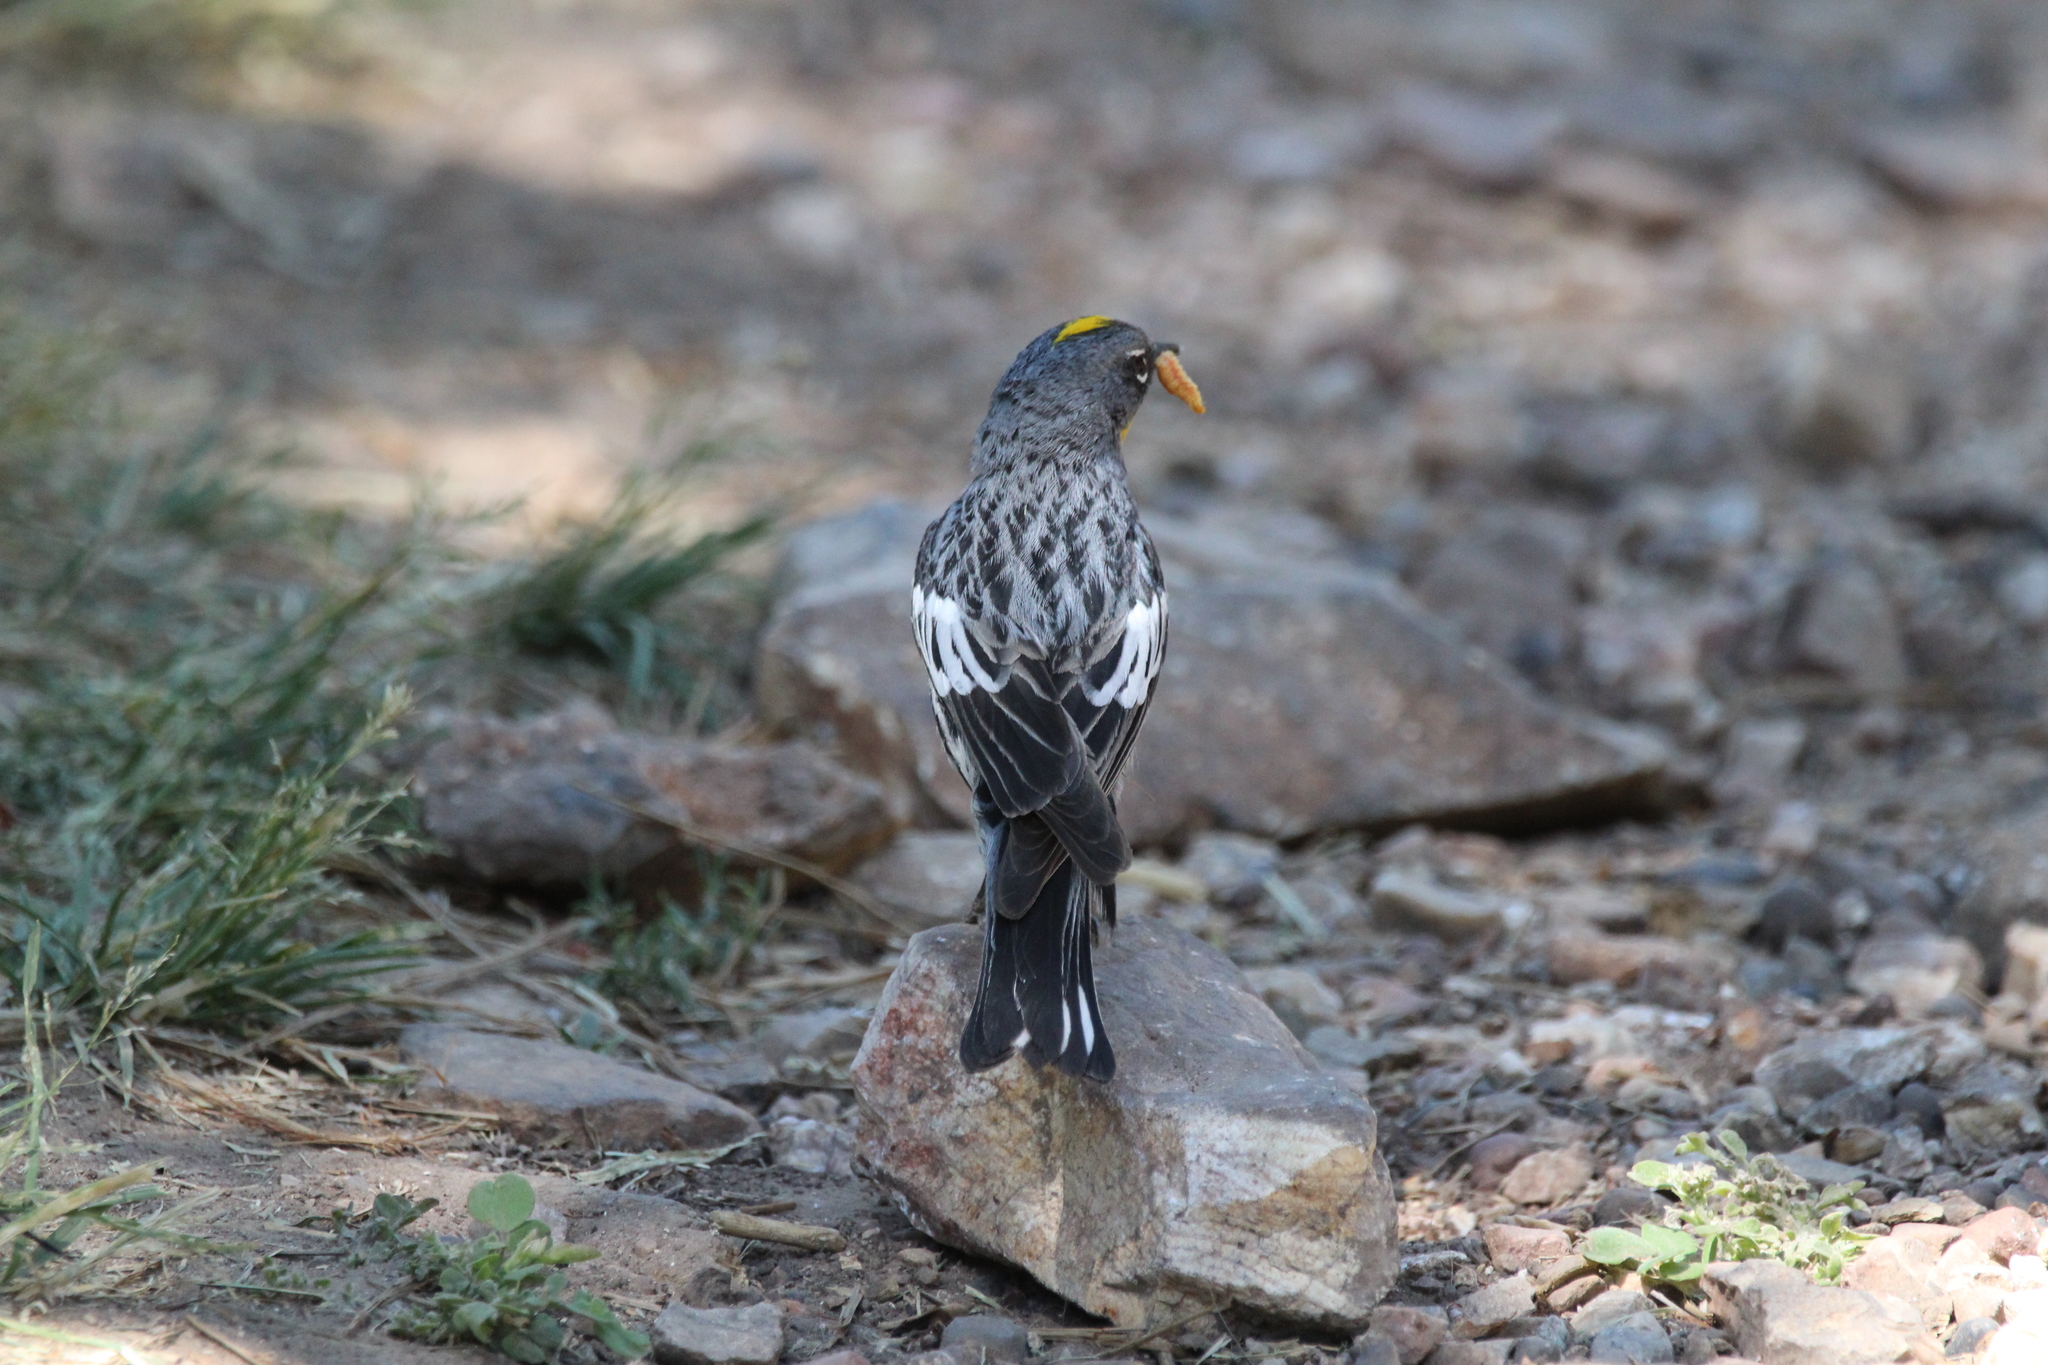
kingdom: Animalia
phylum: Chordata
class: Aves
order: Passeriformes
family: Parulidae
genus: Setophaga
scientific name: Setophaga auduboni
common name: Audubon's warbler
